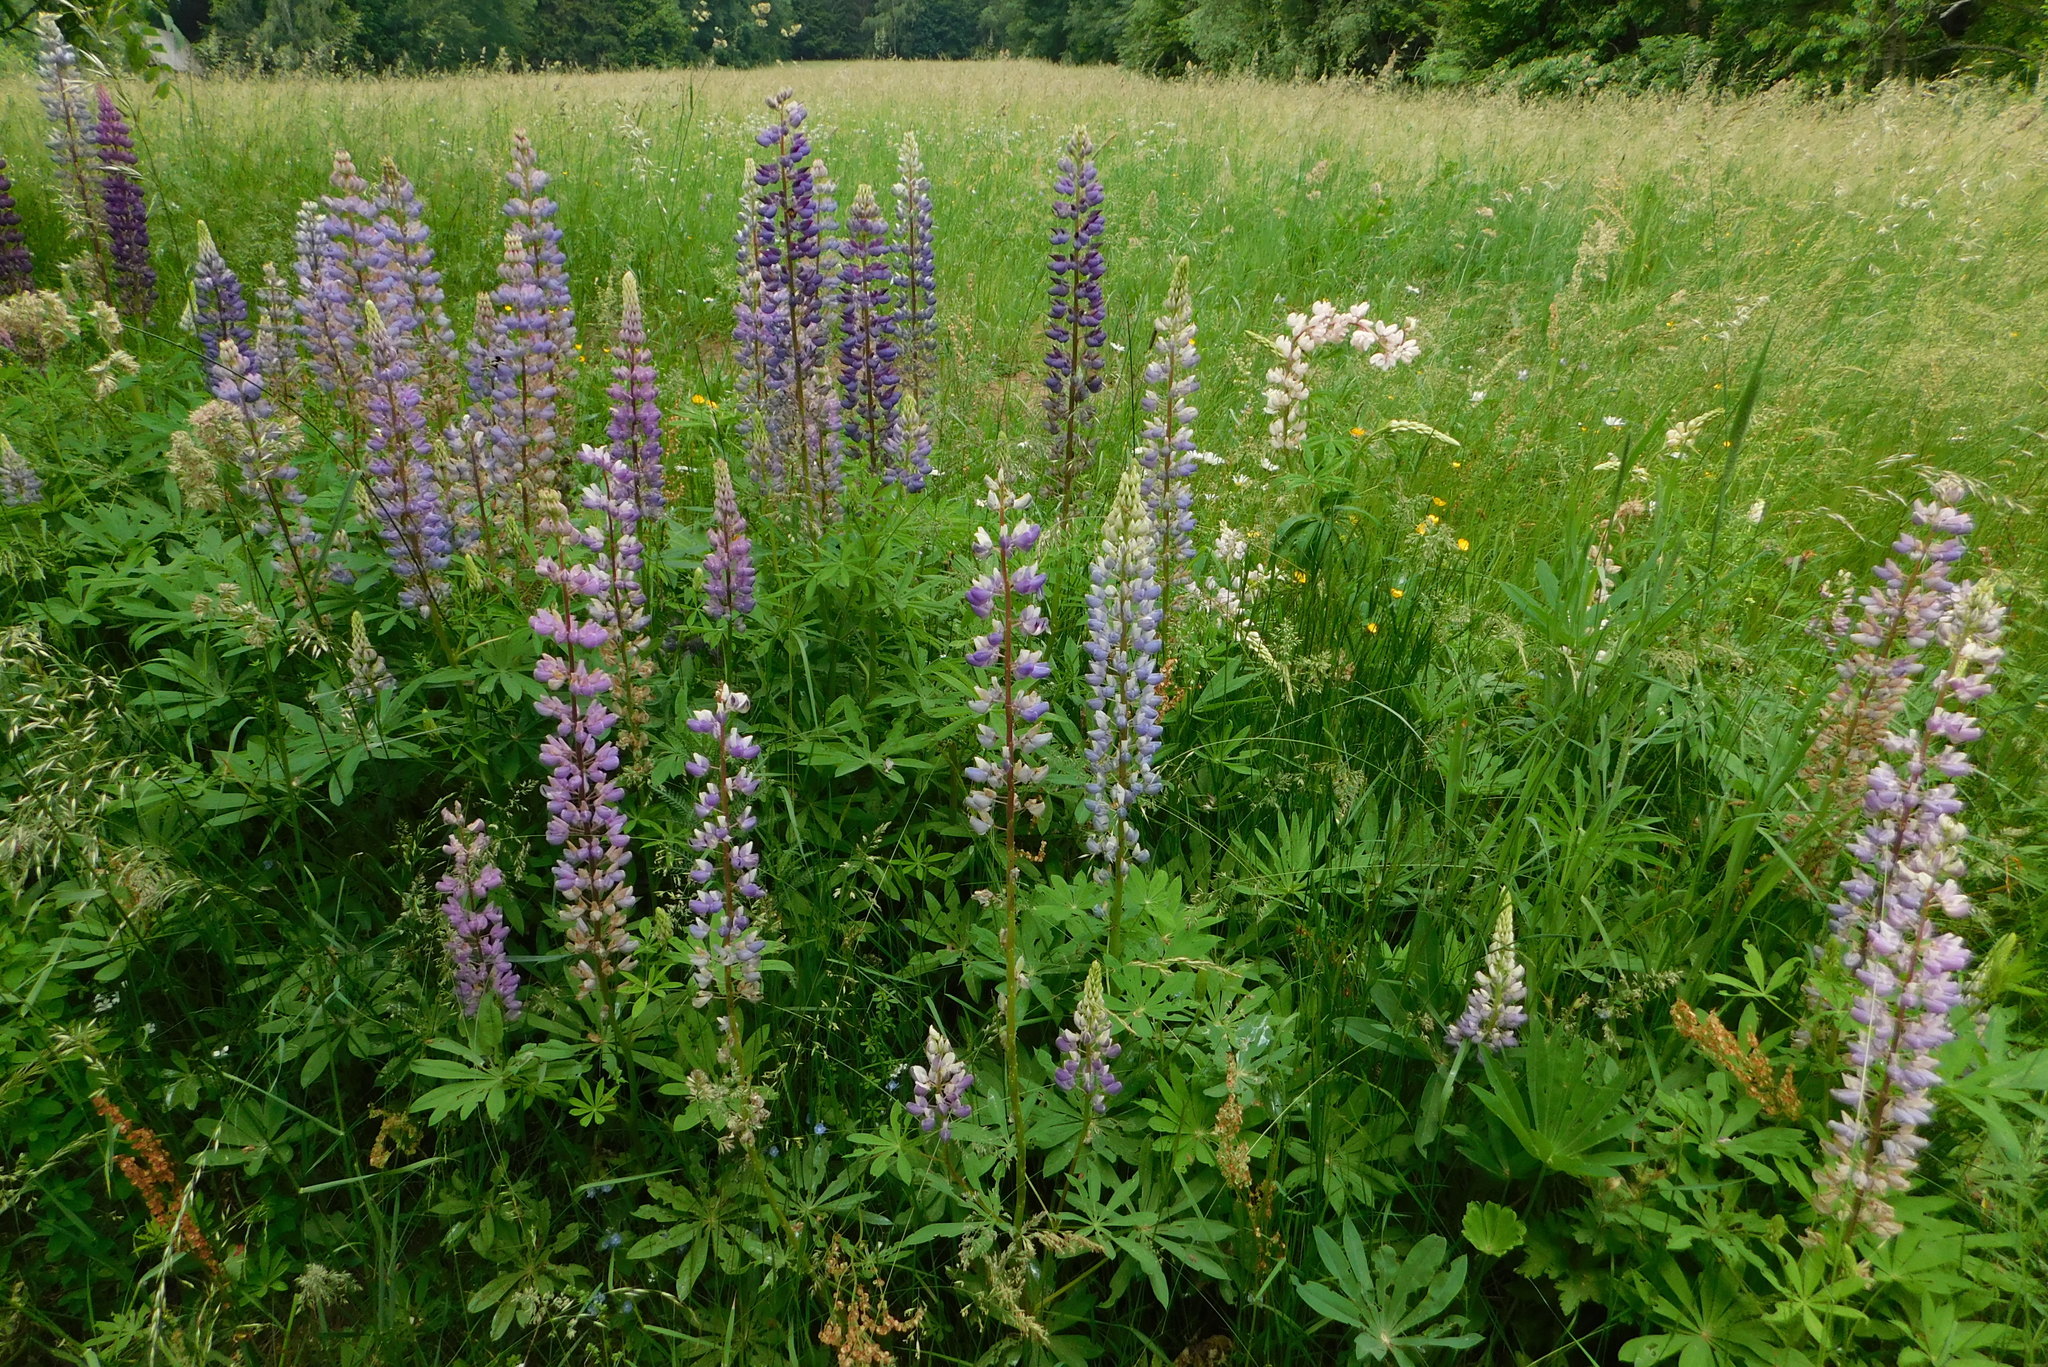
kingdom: Plantae
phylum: Tracheophyta
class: Magnoliopsida
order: Fabales
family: Fabaceae
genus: Lupinus
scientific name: Lupinus polyphyllus
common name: Garden lupin
